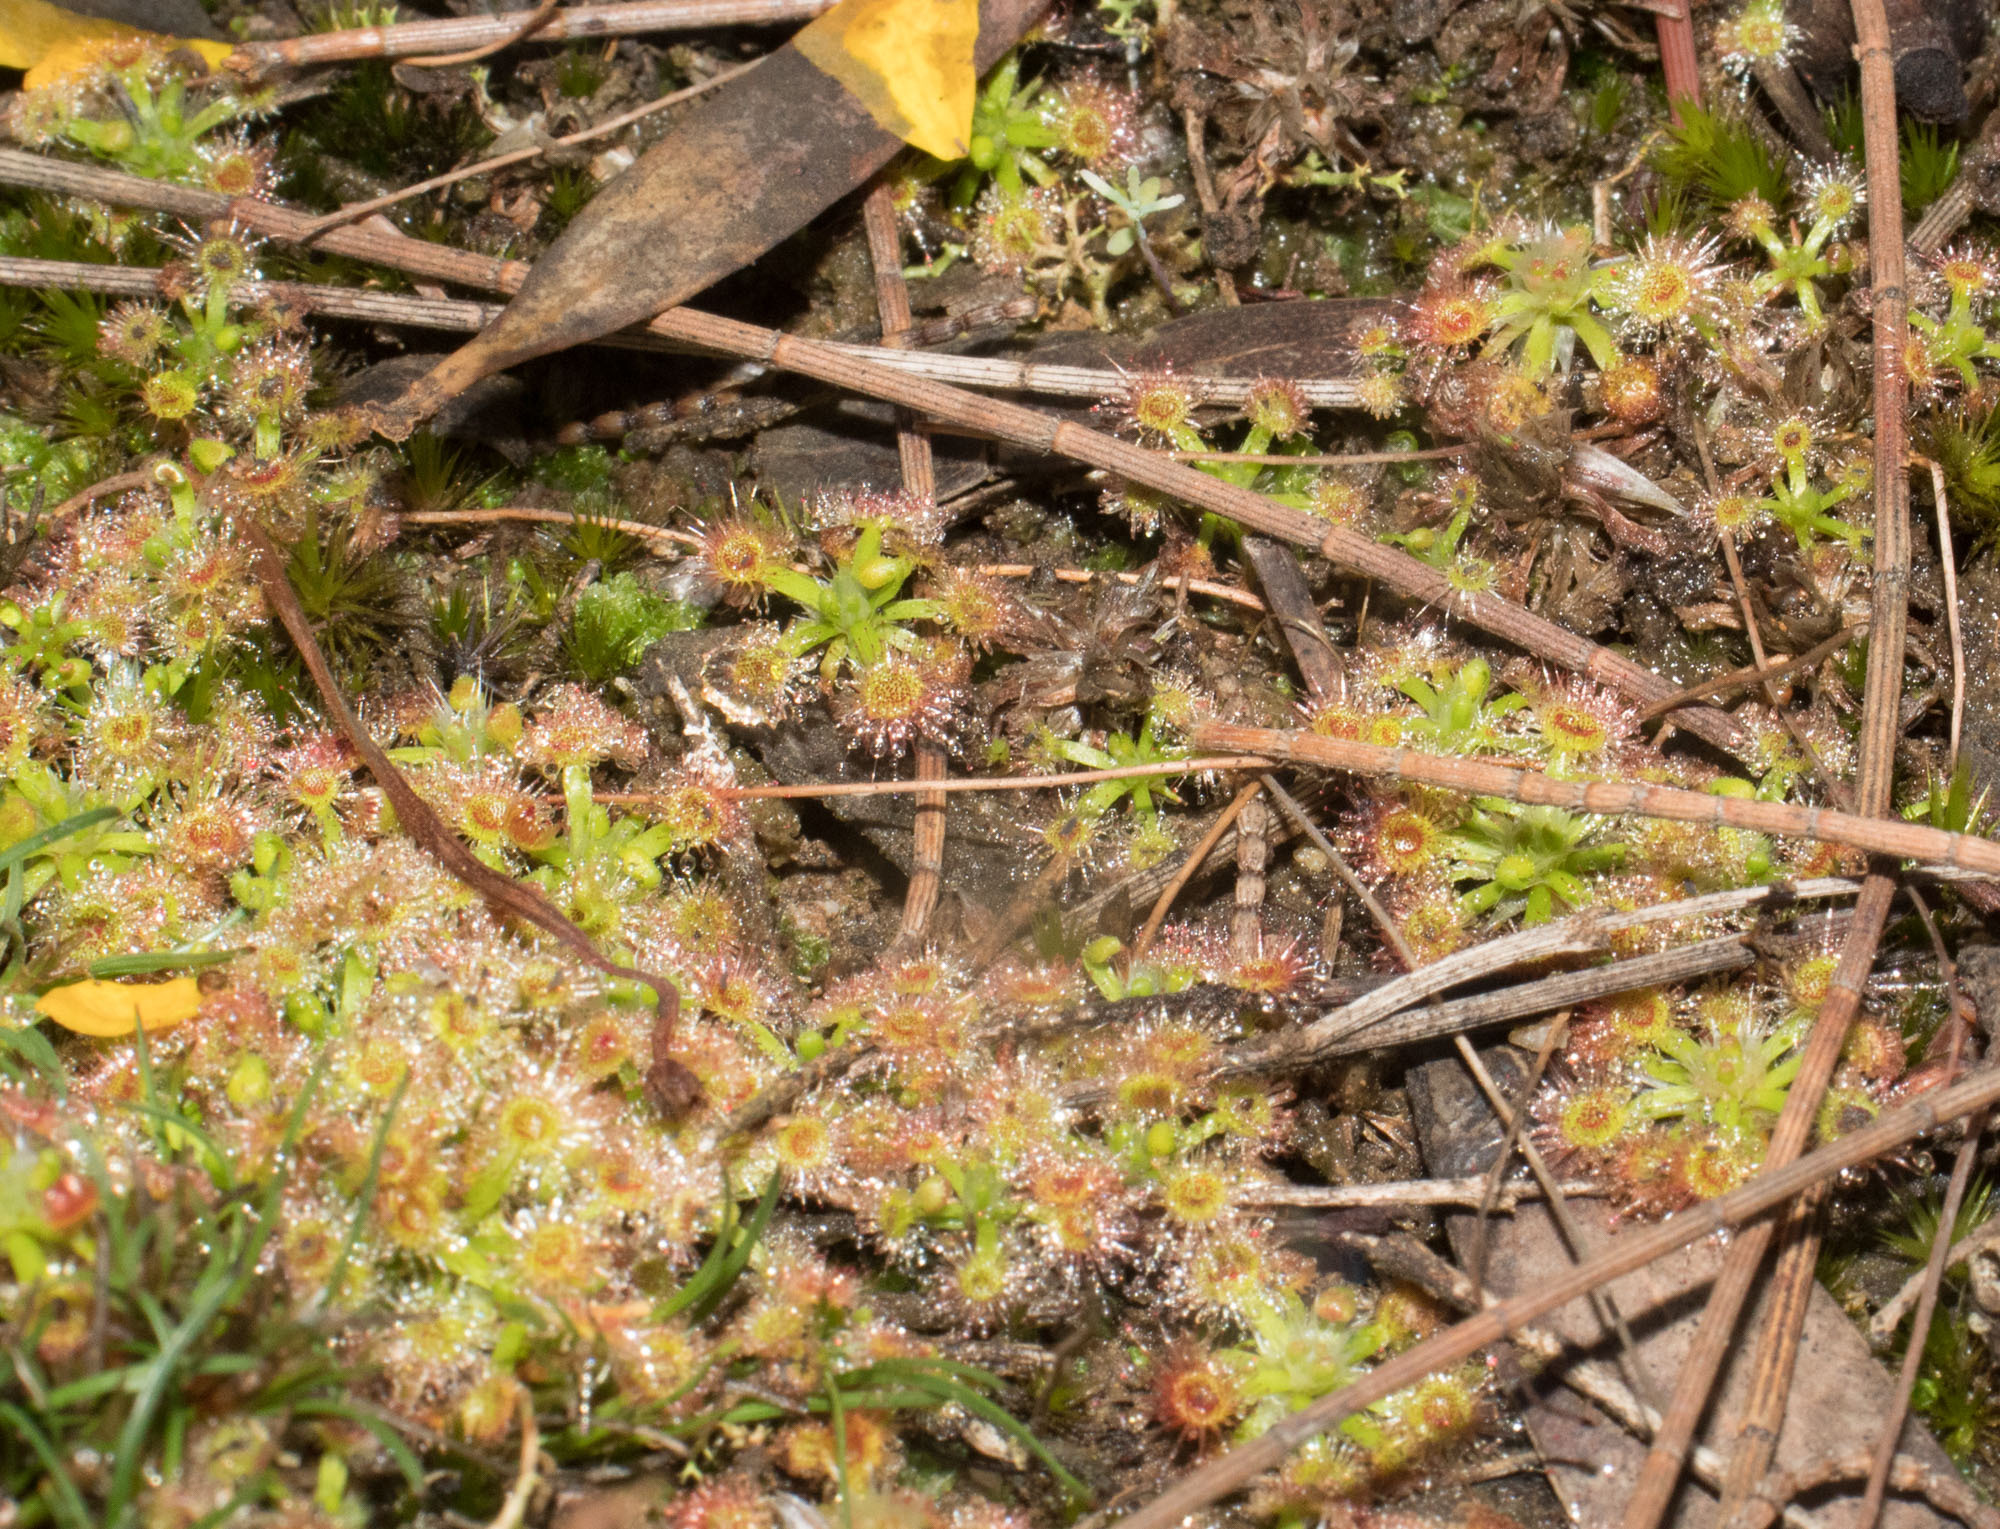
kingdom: Plantae
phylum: Tracheophyta
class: Magnoliopsida
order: Caryophyllales
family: Droseraceae
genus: Drosera
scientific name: Drosera androsacea
